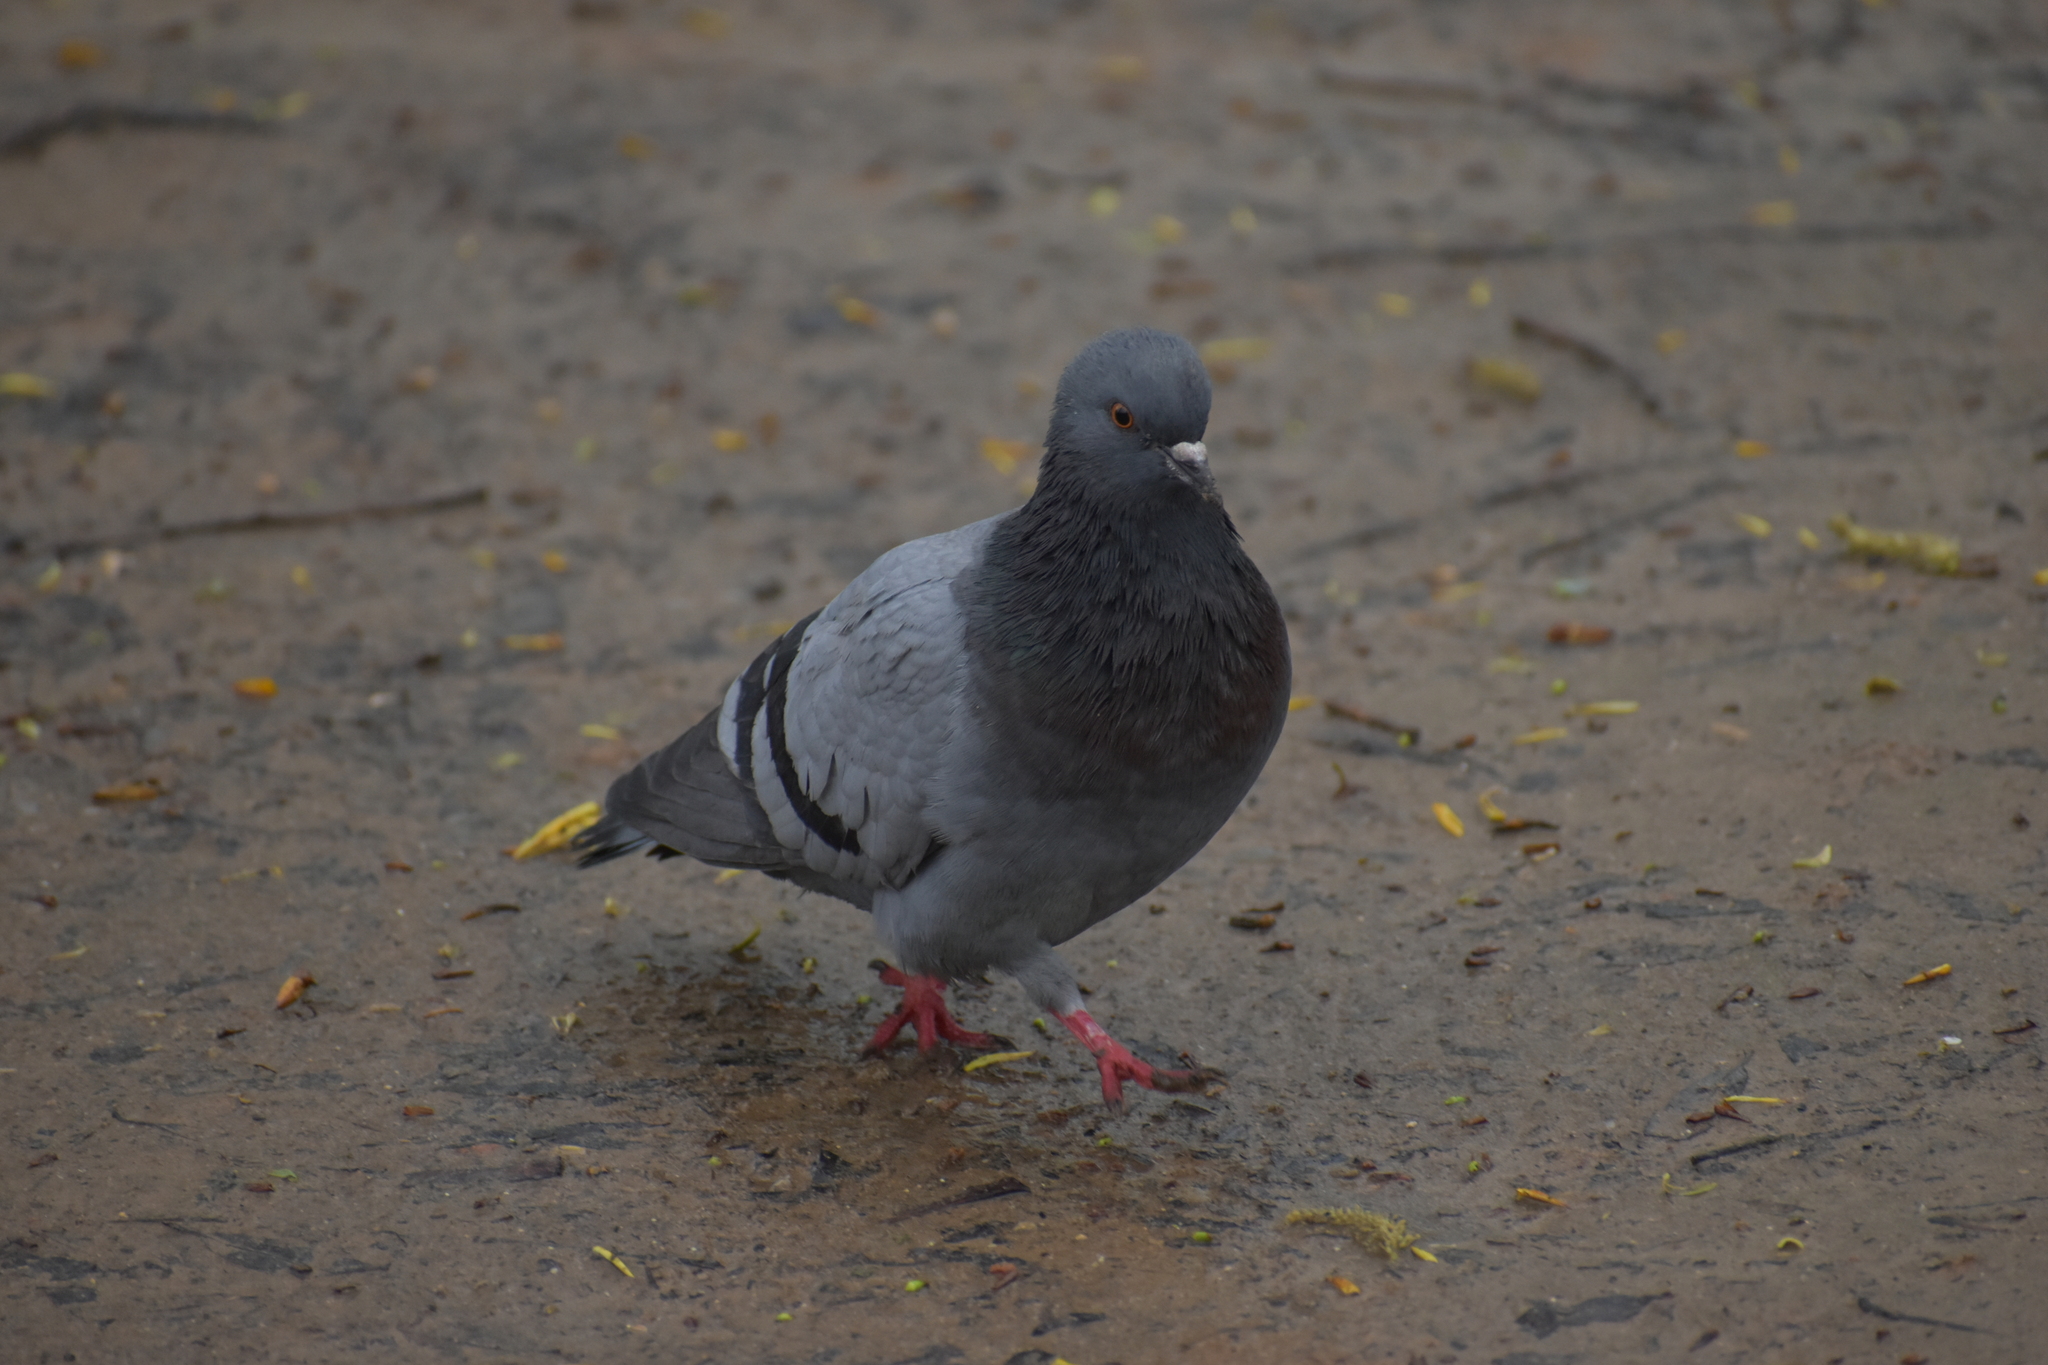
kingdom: Animalia
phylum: Chordata
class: Aves
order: Columbiformes
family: Columbidae
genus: Columba
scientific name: Columba livia
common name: Rock pigeon
